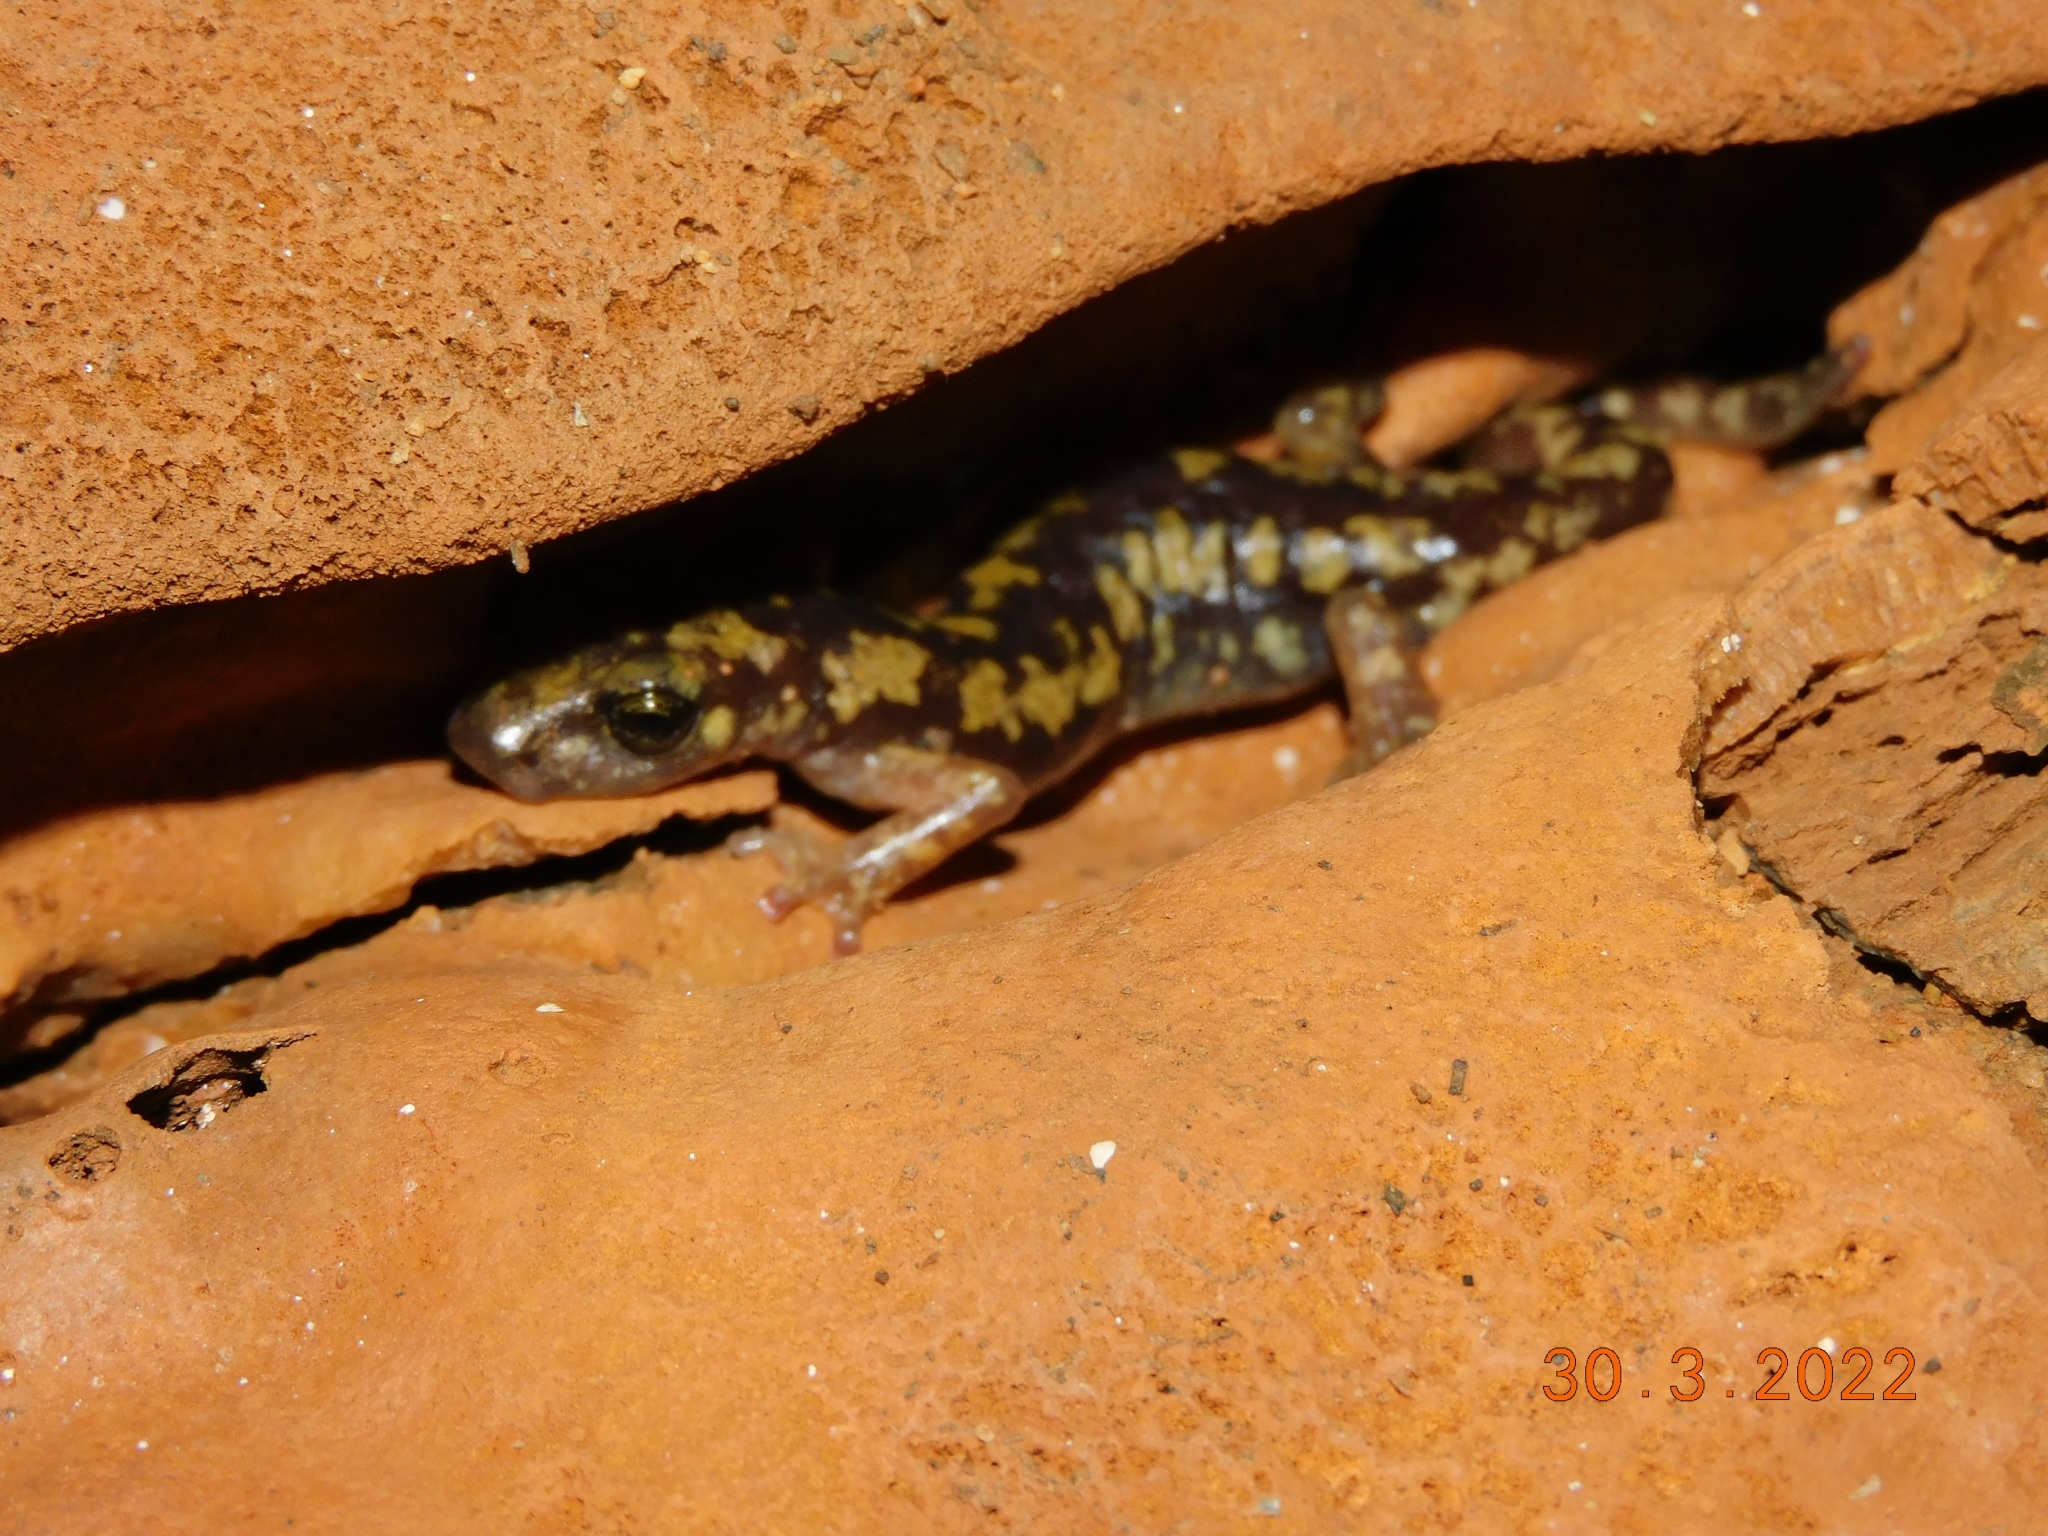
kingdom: Animalia
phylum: Chordata
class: Amphibia
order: Caudata
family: Plethodontidae
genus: Speleomantes
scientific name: Speleomantes imperialis
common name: Imperial cave salamander
